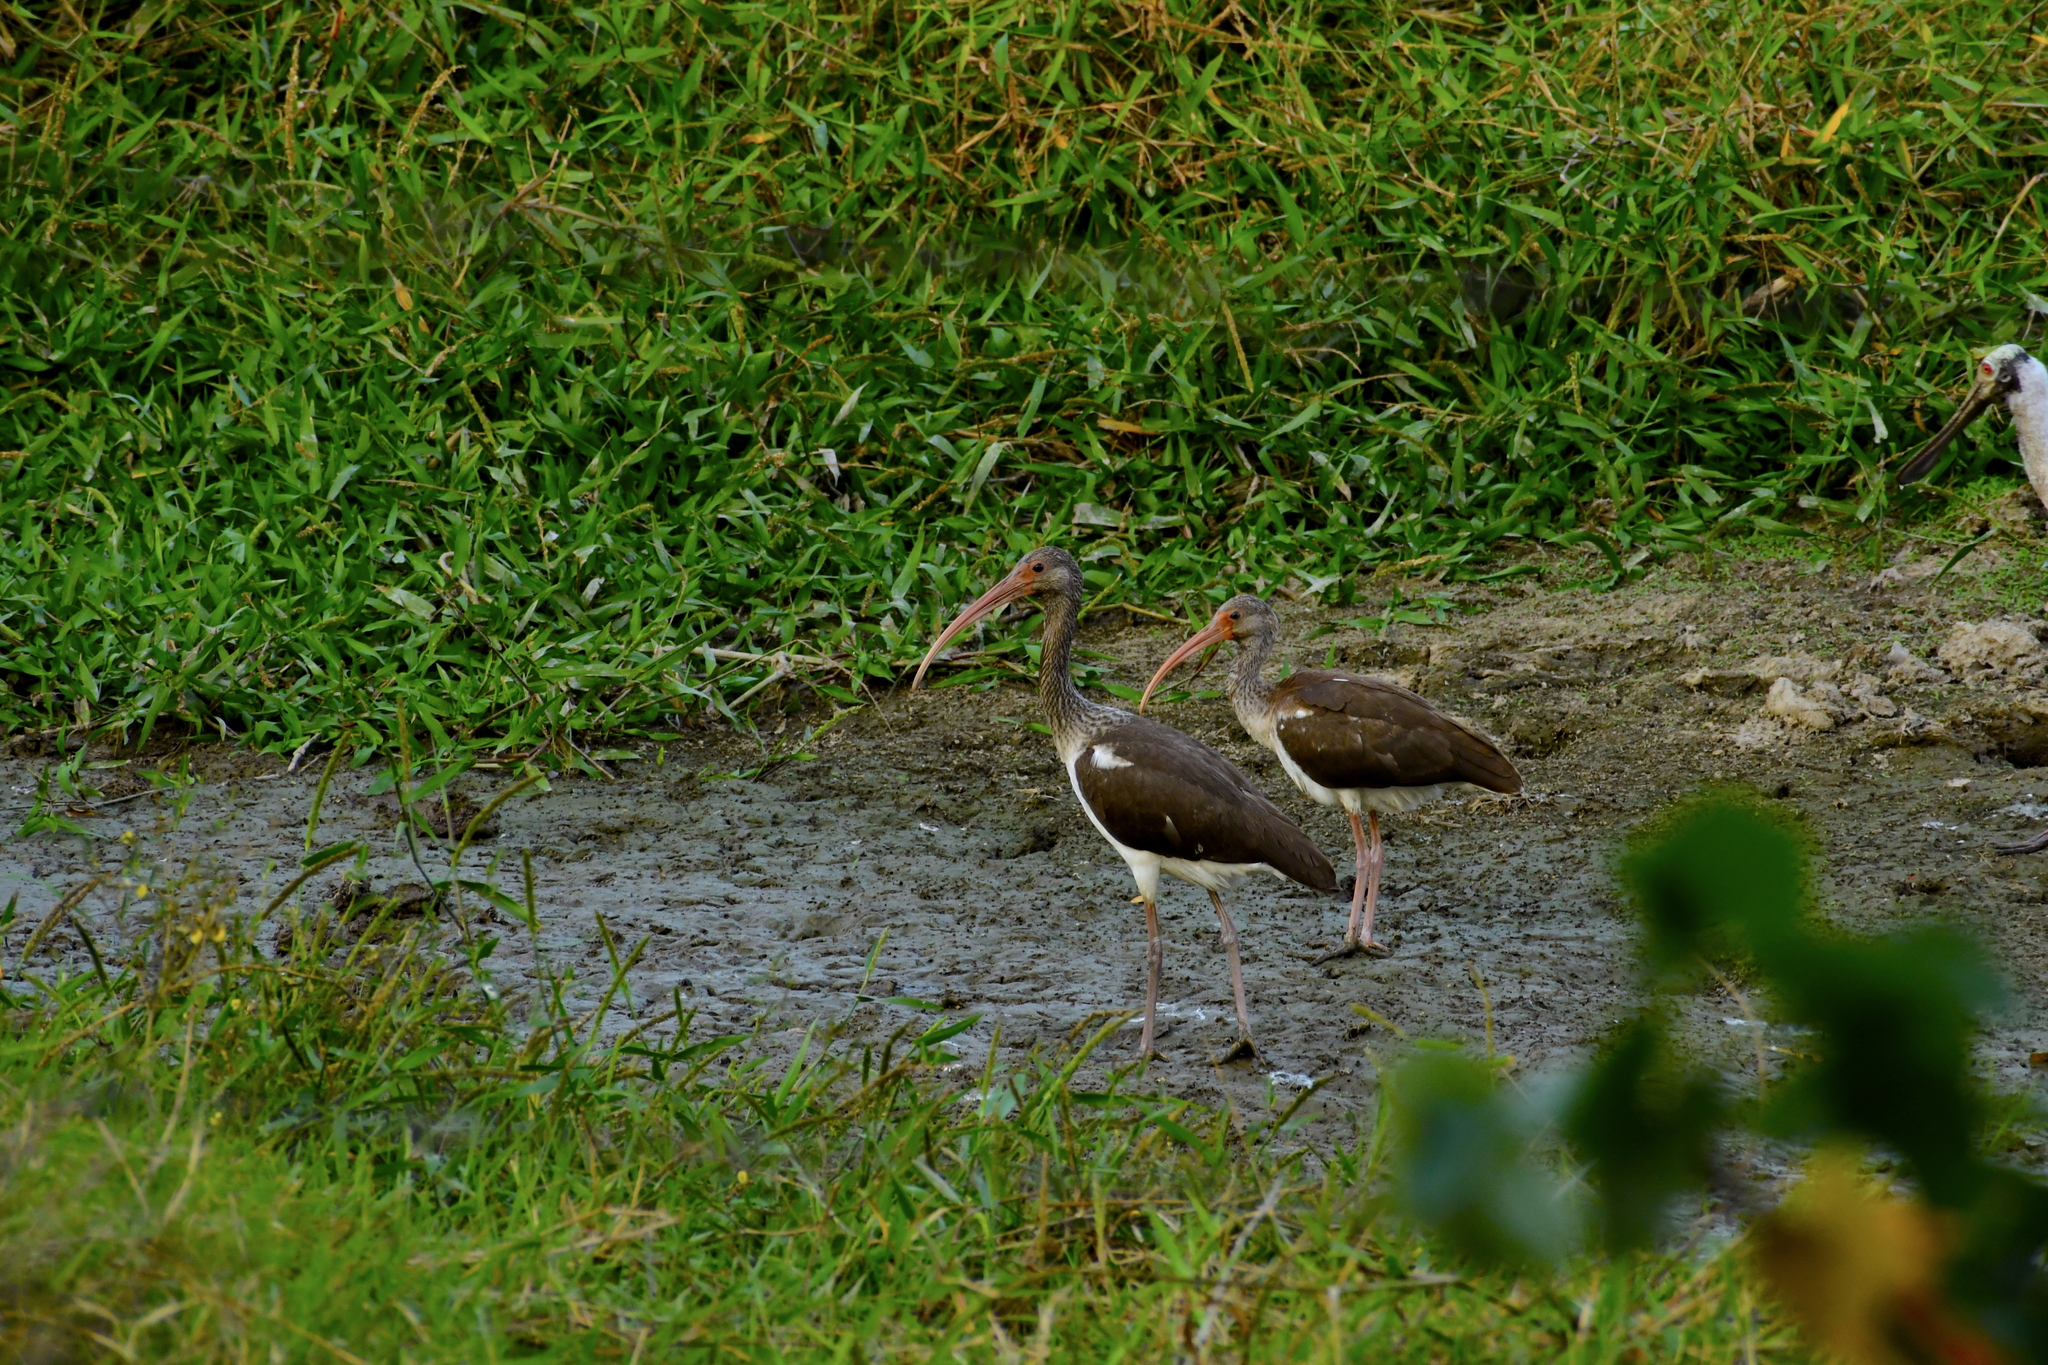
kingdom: Animalia
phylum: Chordata
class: Aves
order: Pelecaniformes
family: Threskiornithidae
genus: Eudocimus
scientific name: Eudocimus albus
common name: White ibis
